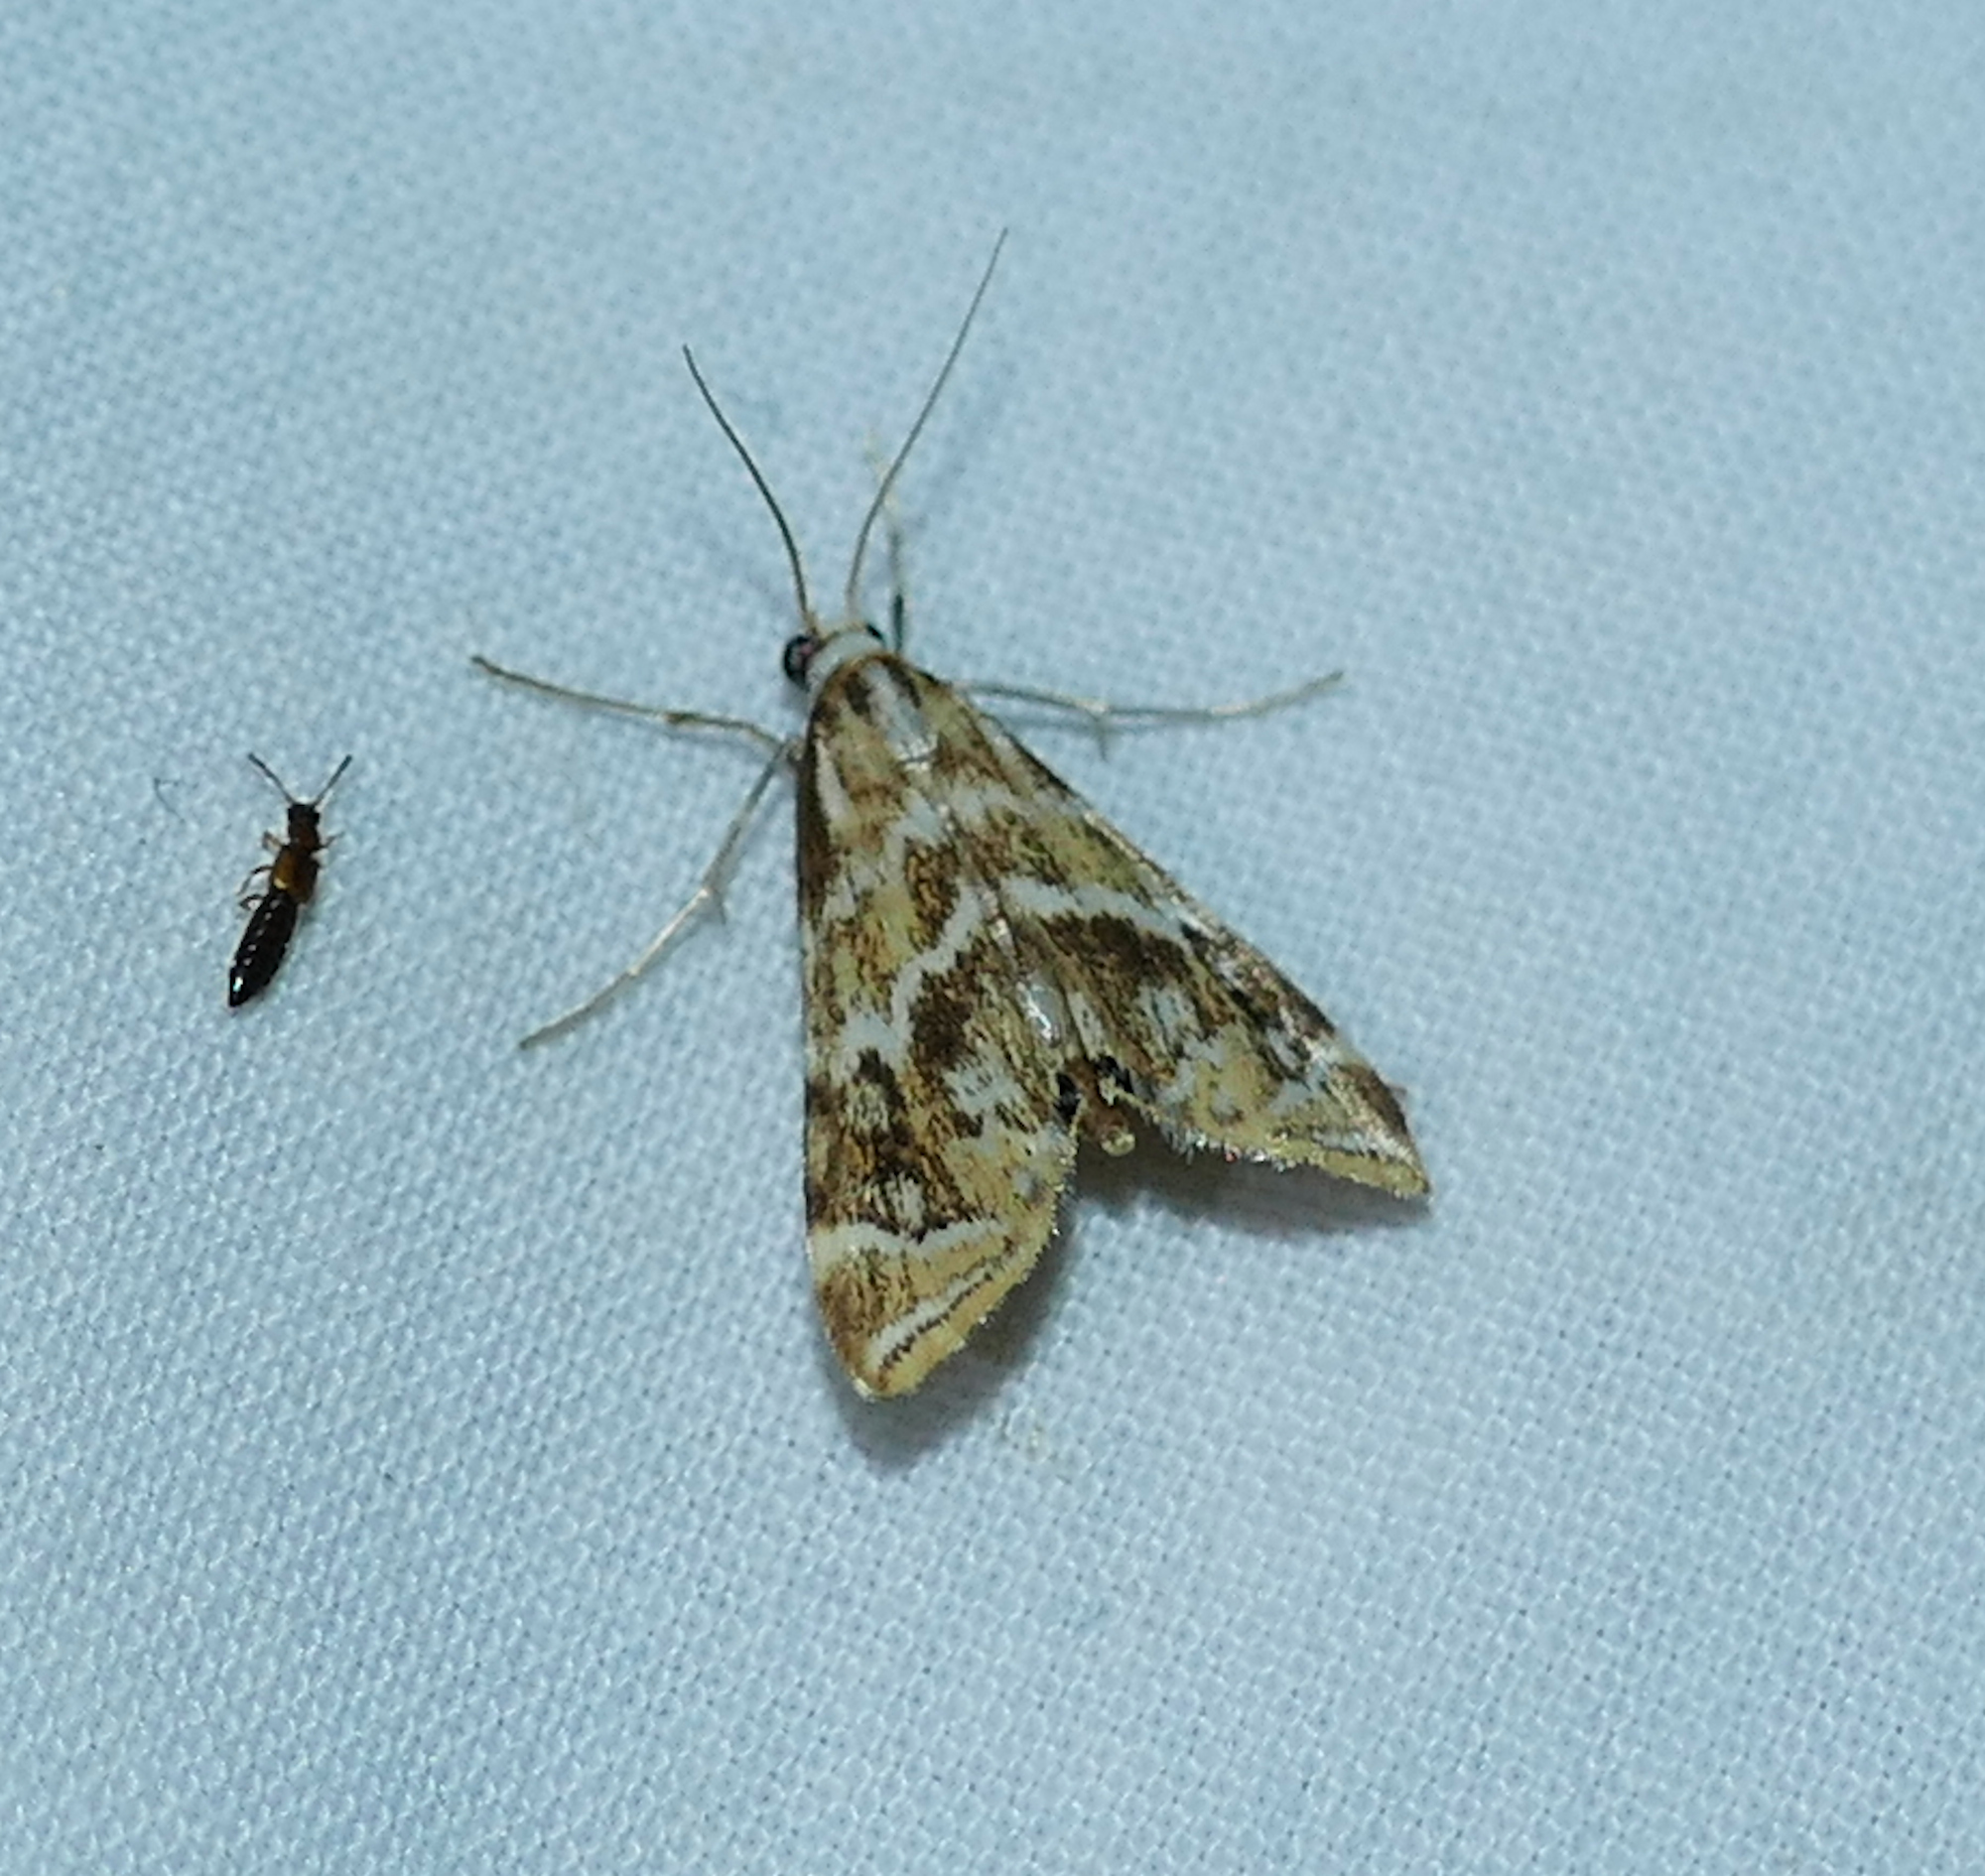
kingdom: Animalia
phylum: Arthropoda
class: Insecta
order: Lepidoptera
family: Crambidae
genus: Petrophila
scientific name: Petrophila avernalis
